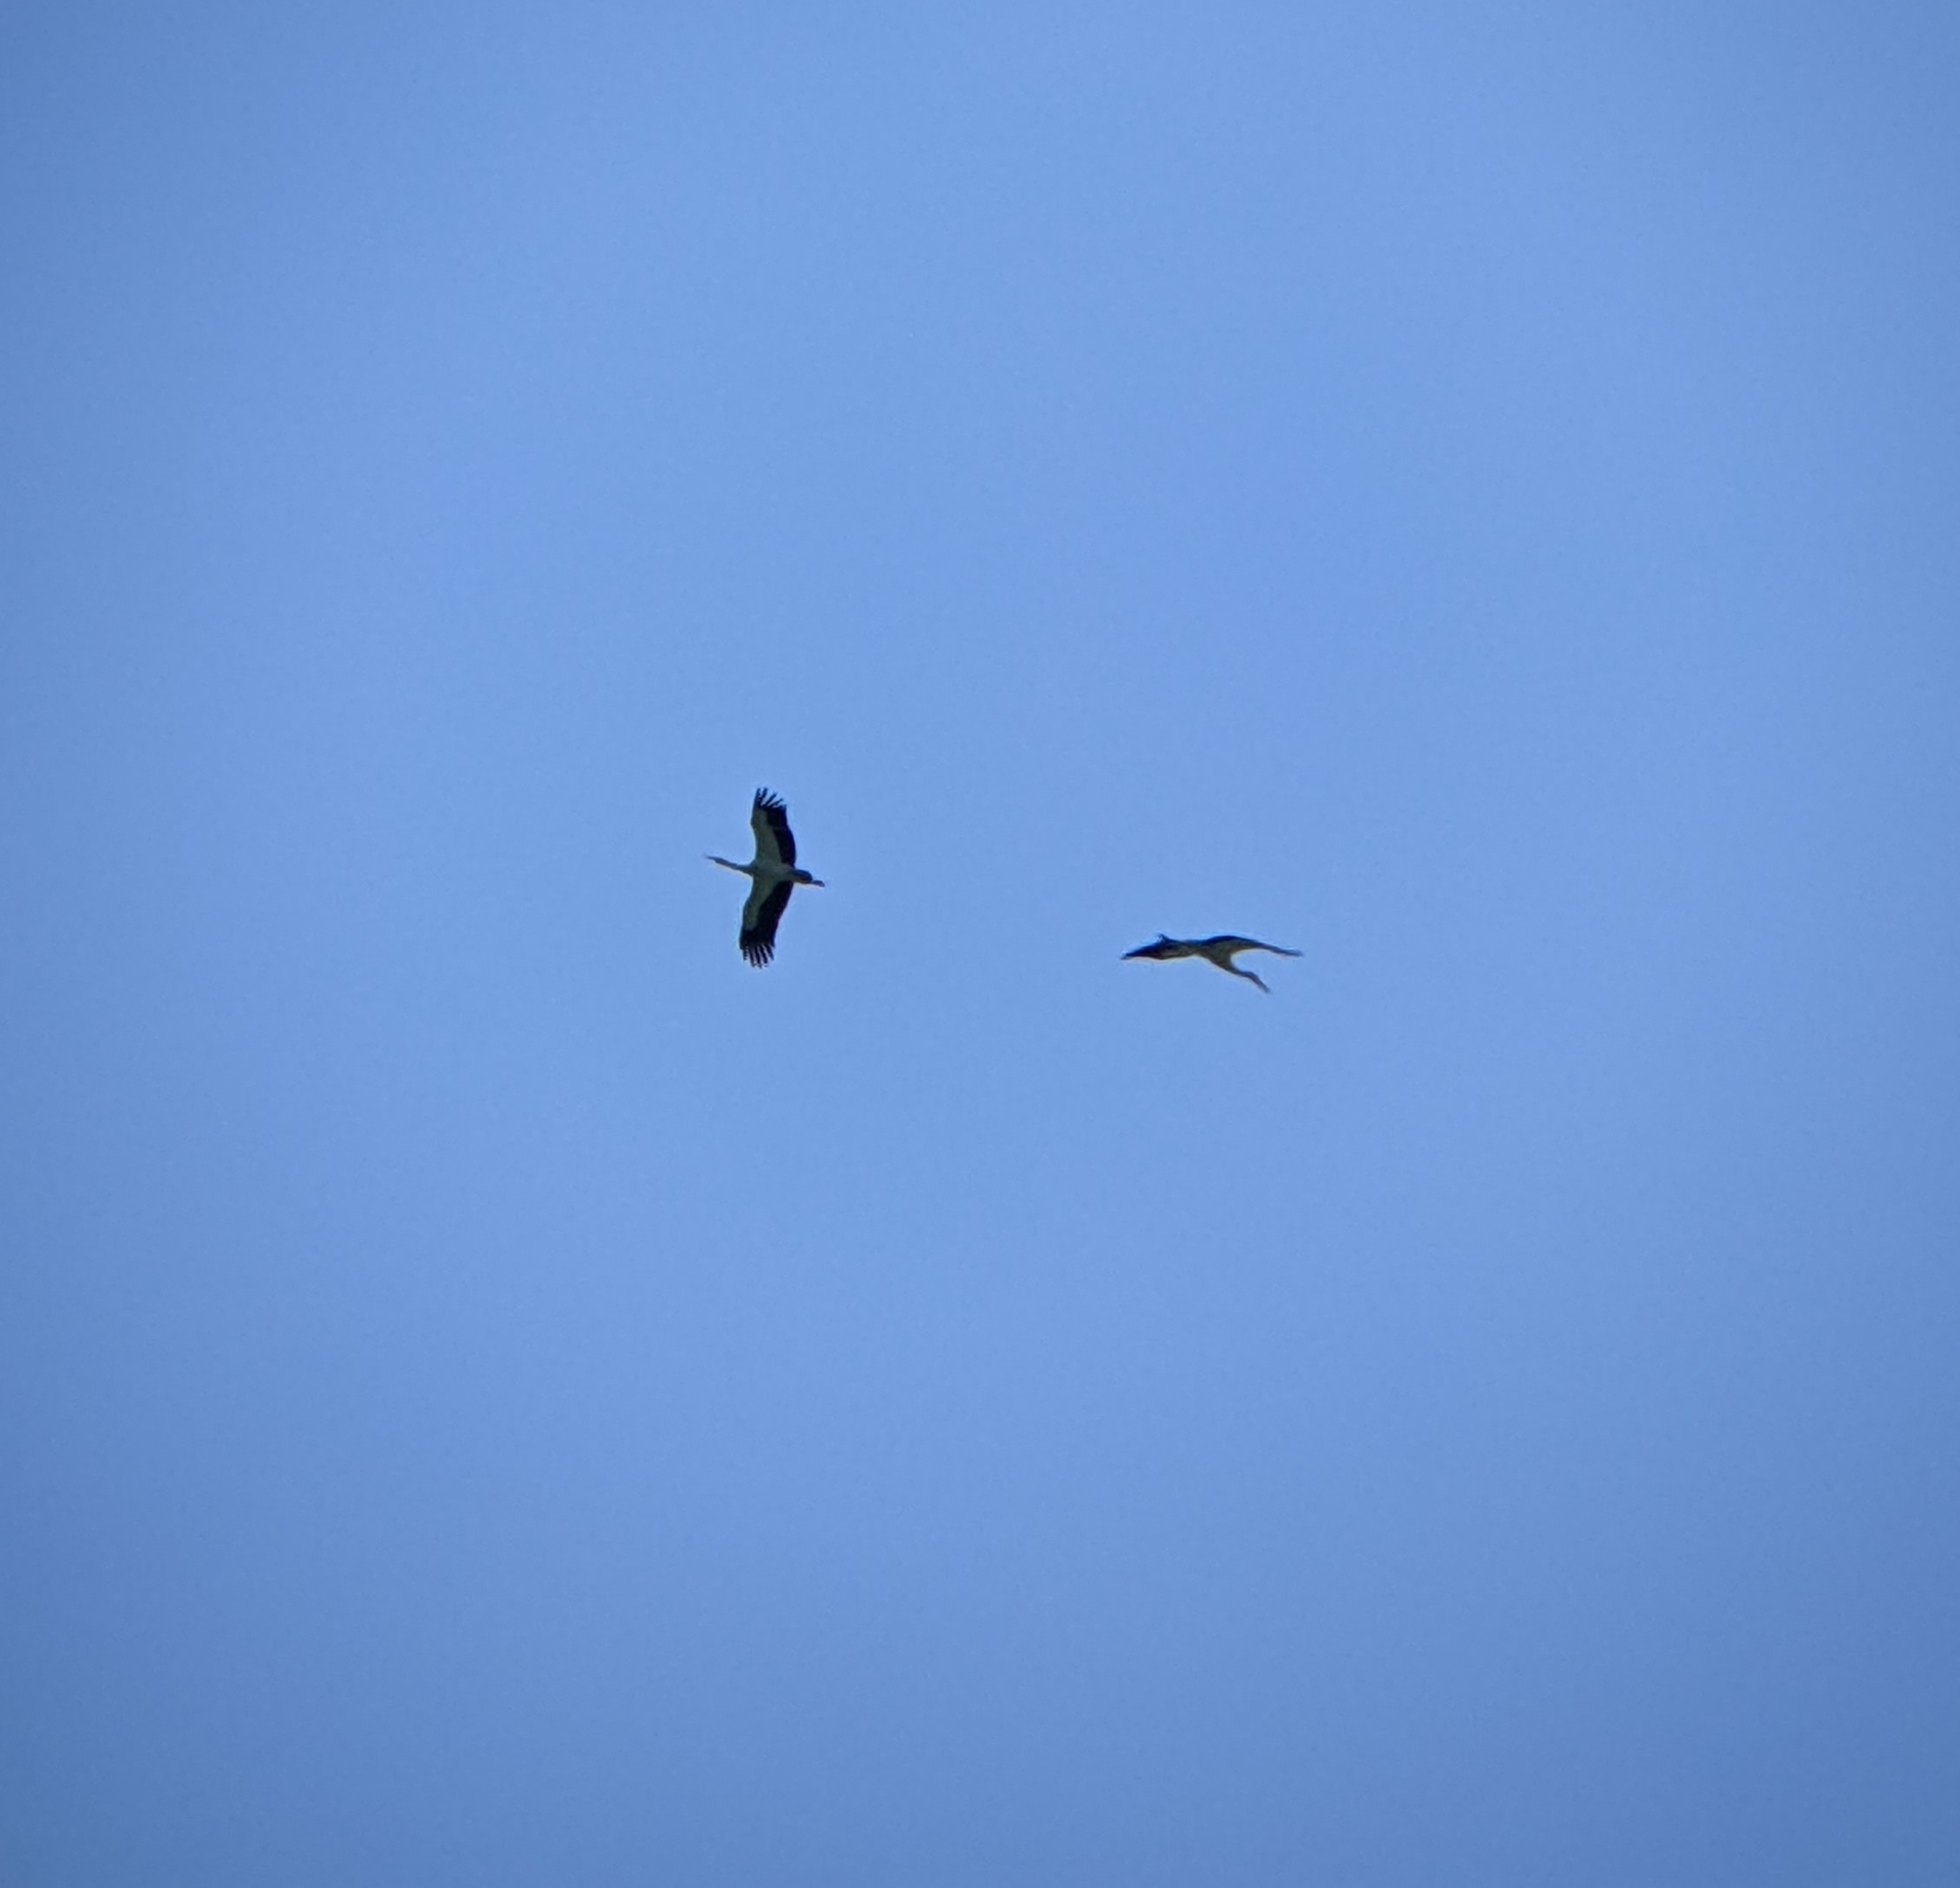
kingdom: Animalia
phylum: Chordata
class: Aves
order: Ciconiiformes
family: Ciconiidae
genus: Ciconia
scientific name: Ciconia ciconia
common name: White stork
